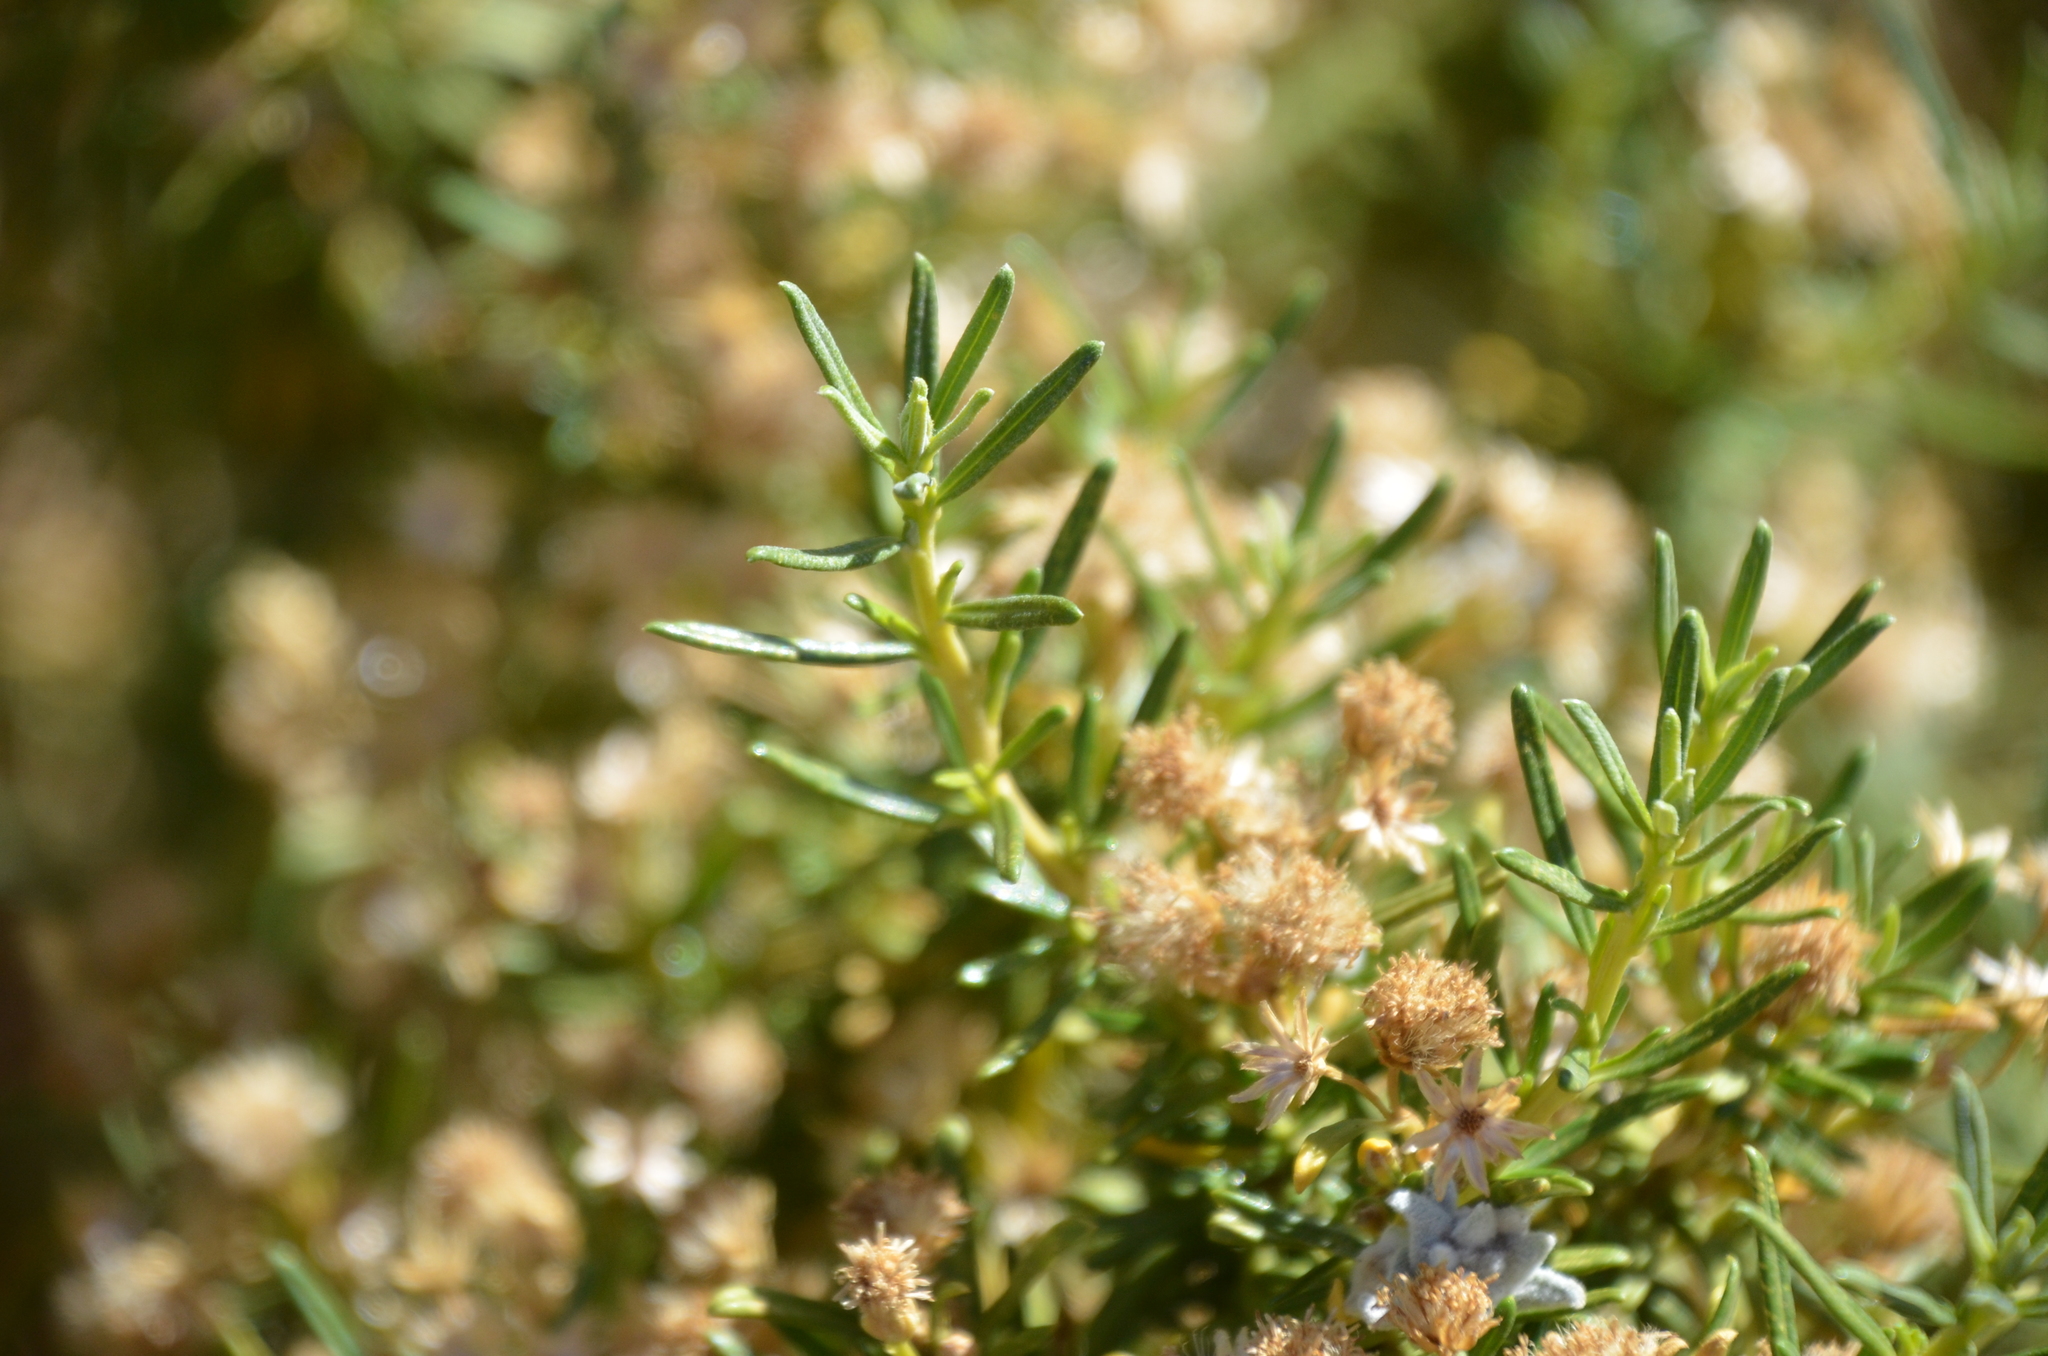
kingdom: Plantae
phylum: Tracheophyta
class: Magnoliopsida
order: Asterales
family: Asteraceae
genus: Baccharis
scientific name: Baccharis grisebachii
